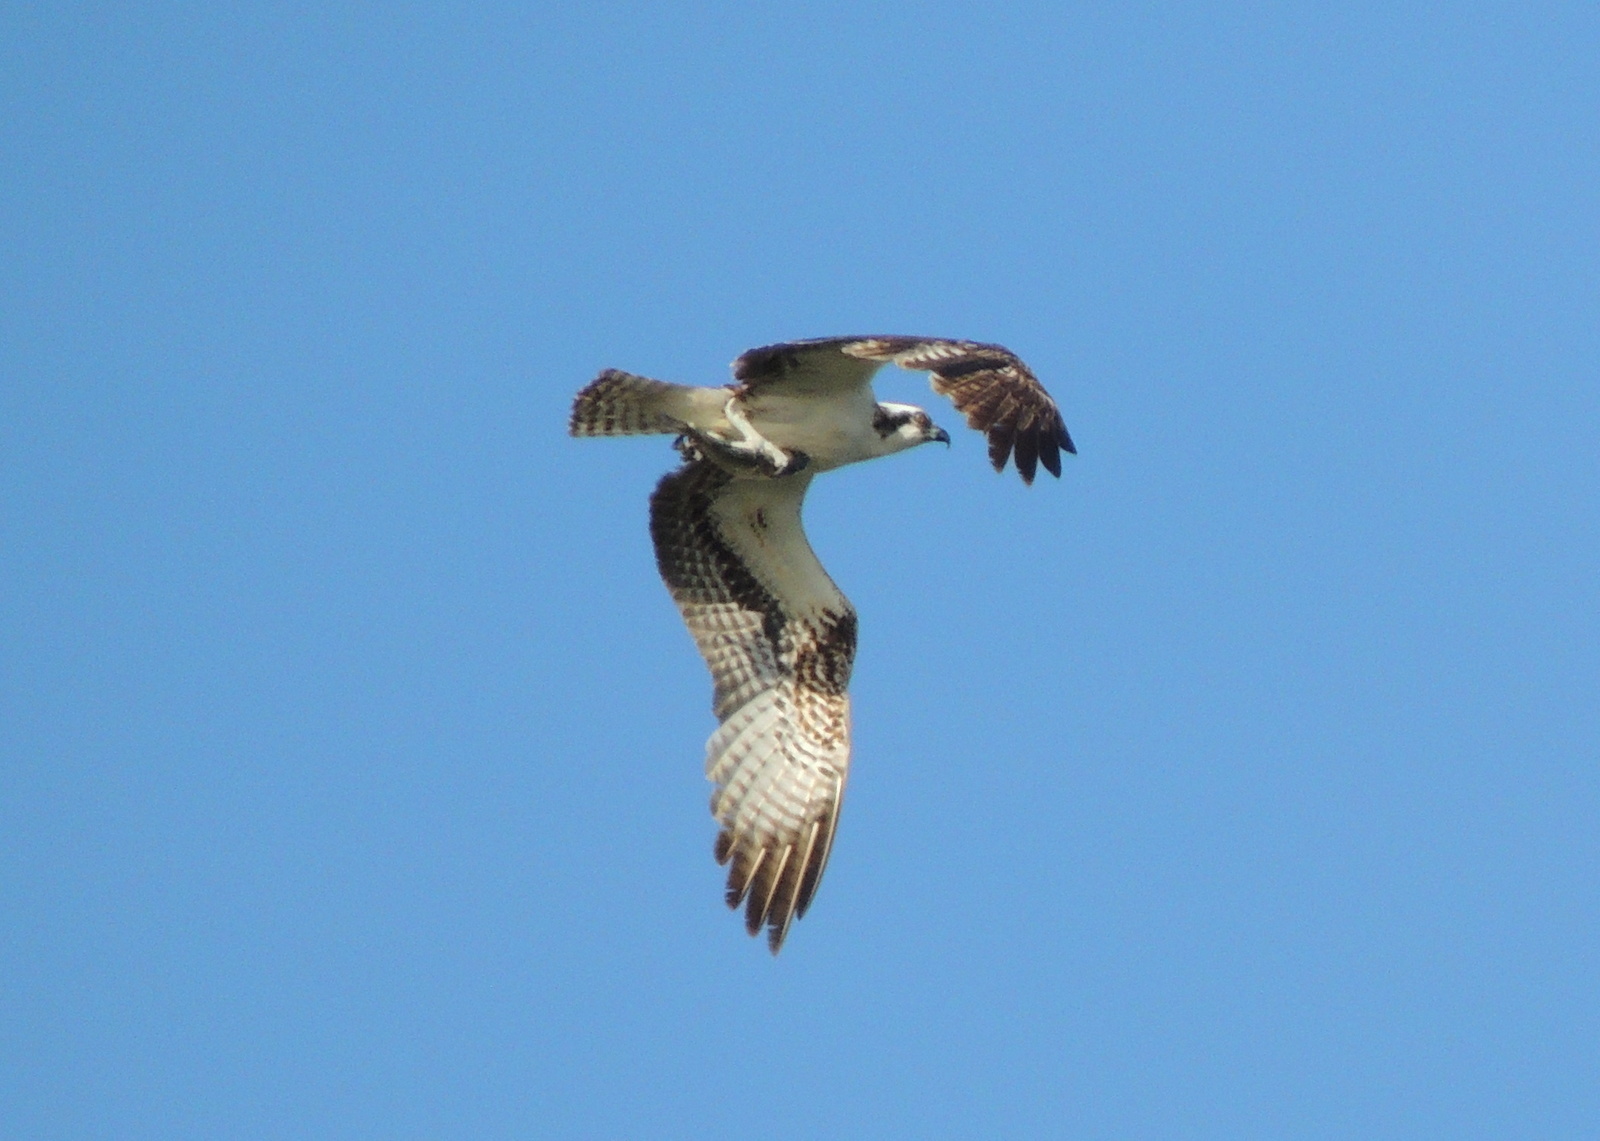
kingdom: Animalia
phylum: Chordata
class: Aves
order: Accipitriformes
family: Pandionidae
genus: Pandion
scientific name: Pandion haliaetus
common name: Osprey
